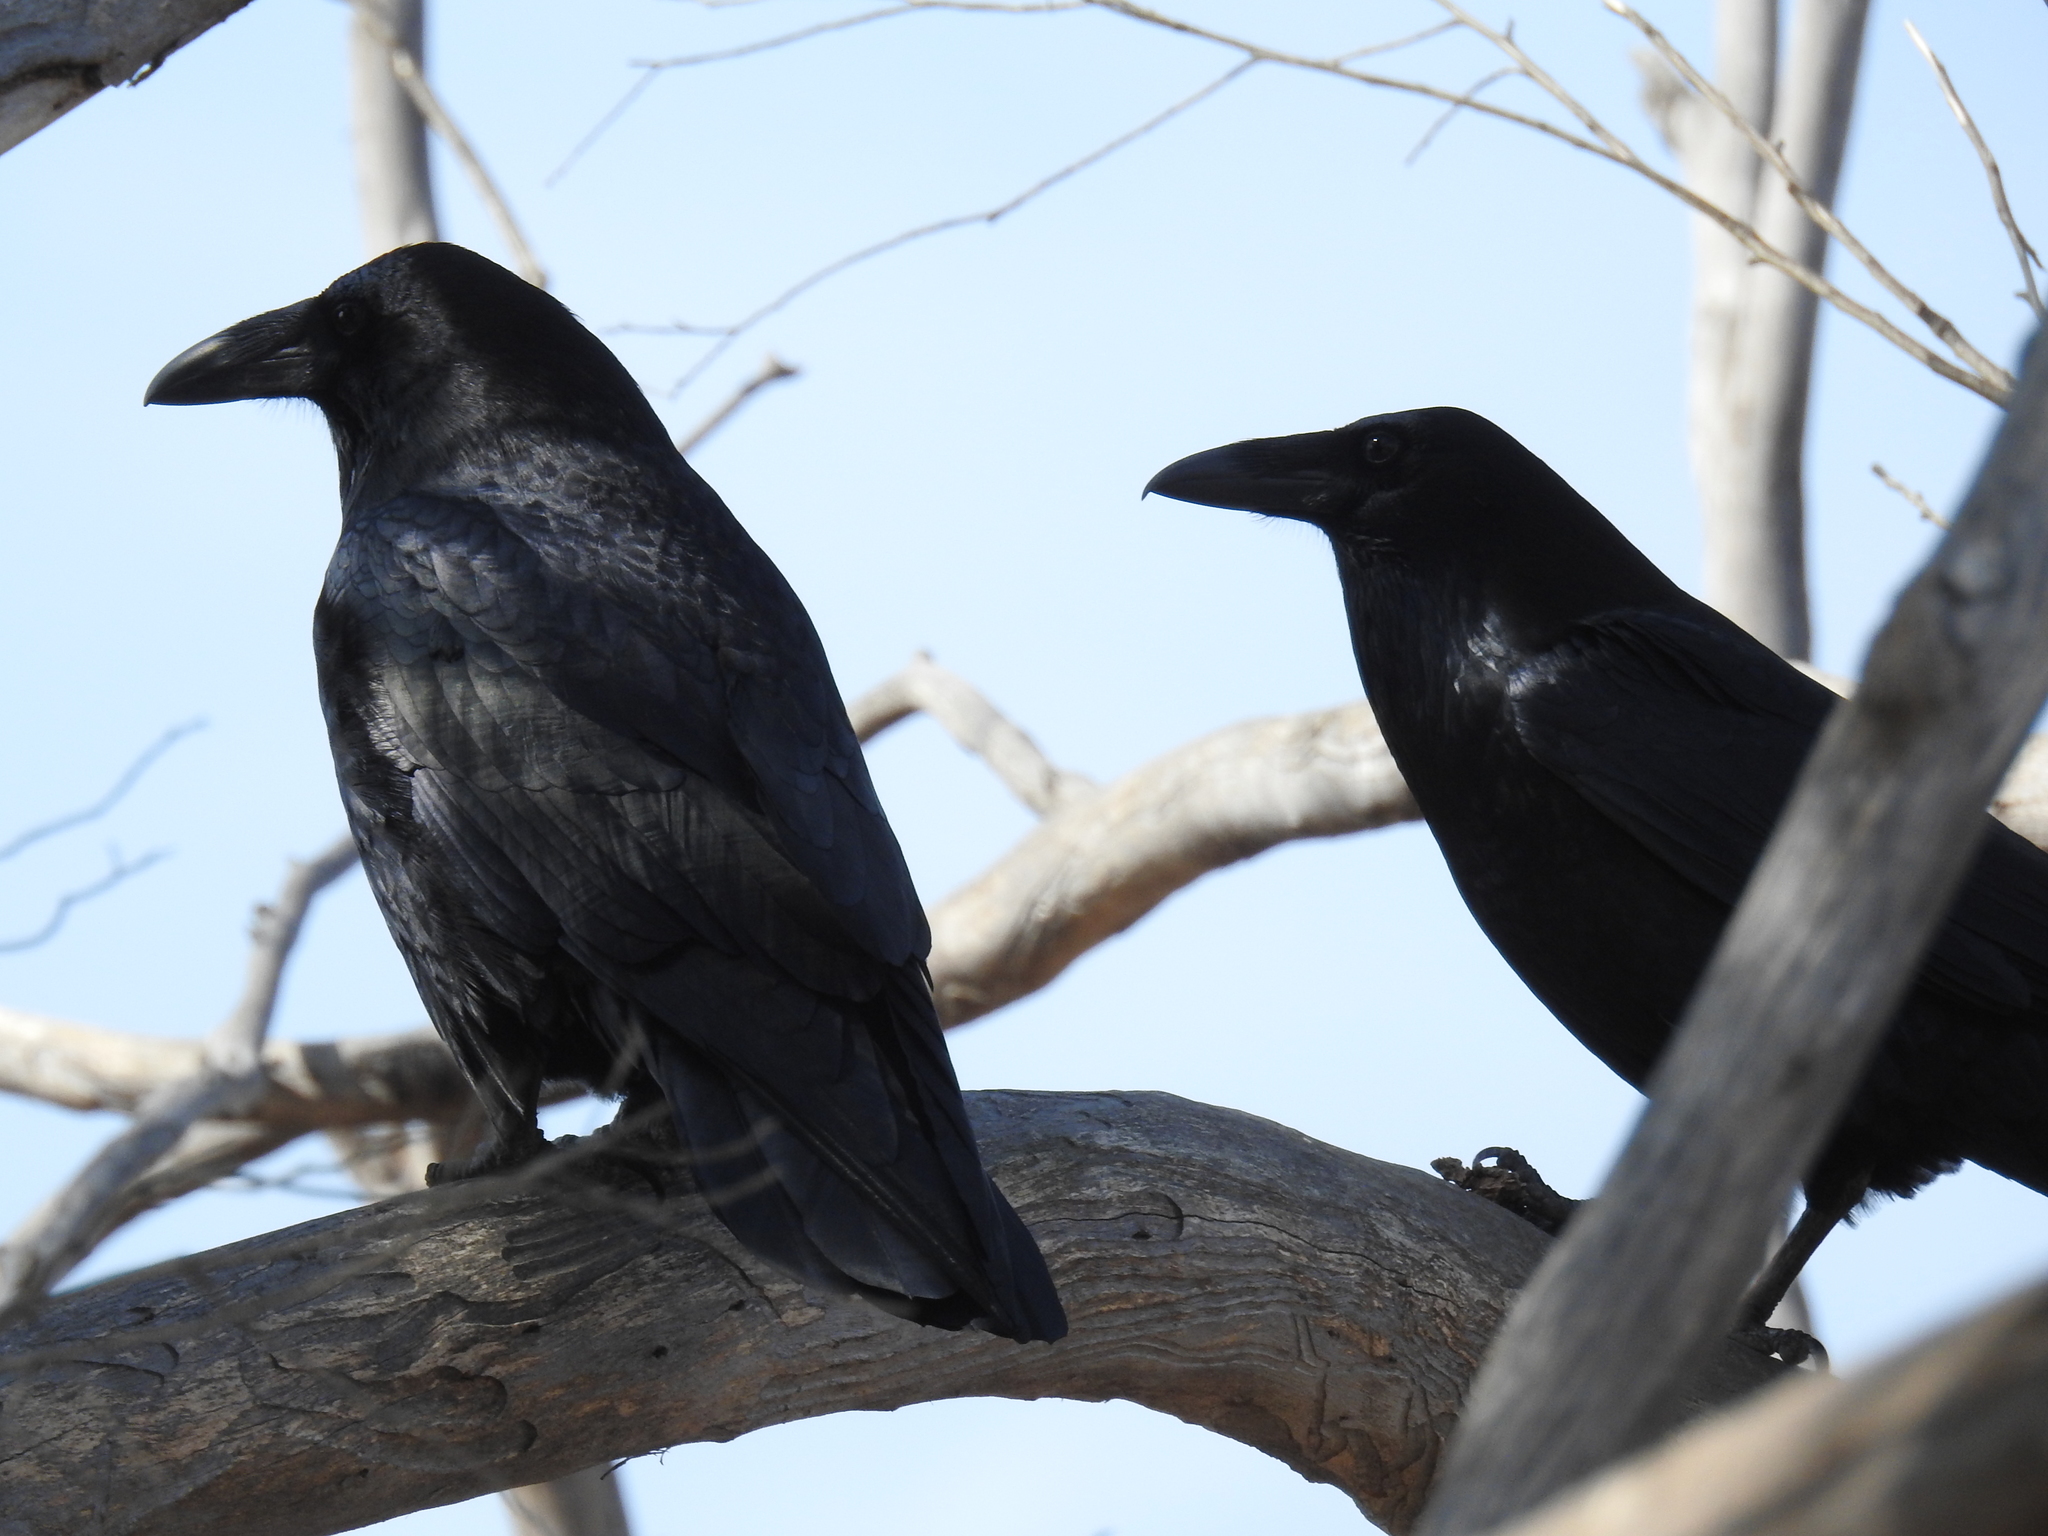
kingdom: Animalia
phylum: Chordata
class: Aves
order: Passeriformes
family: Corvidae
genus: Corvus
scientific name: Corvus corax
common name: Common raven
